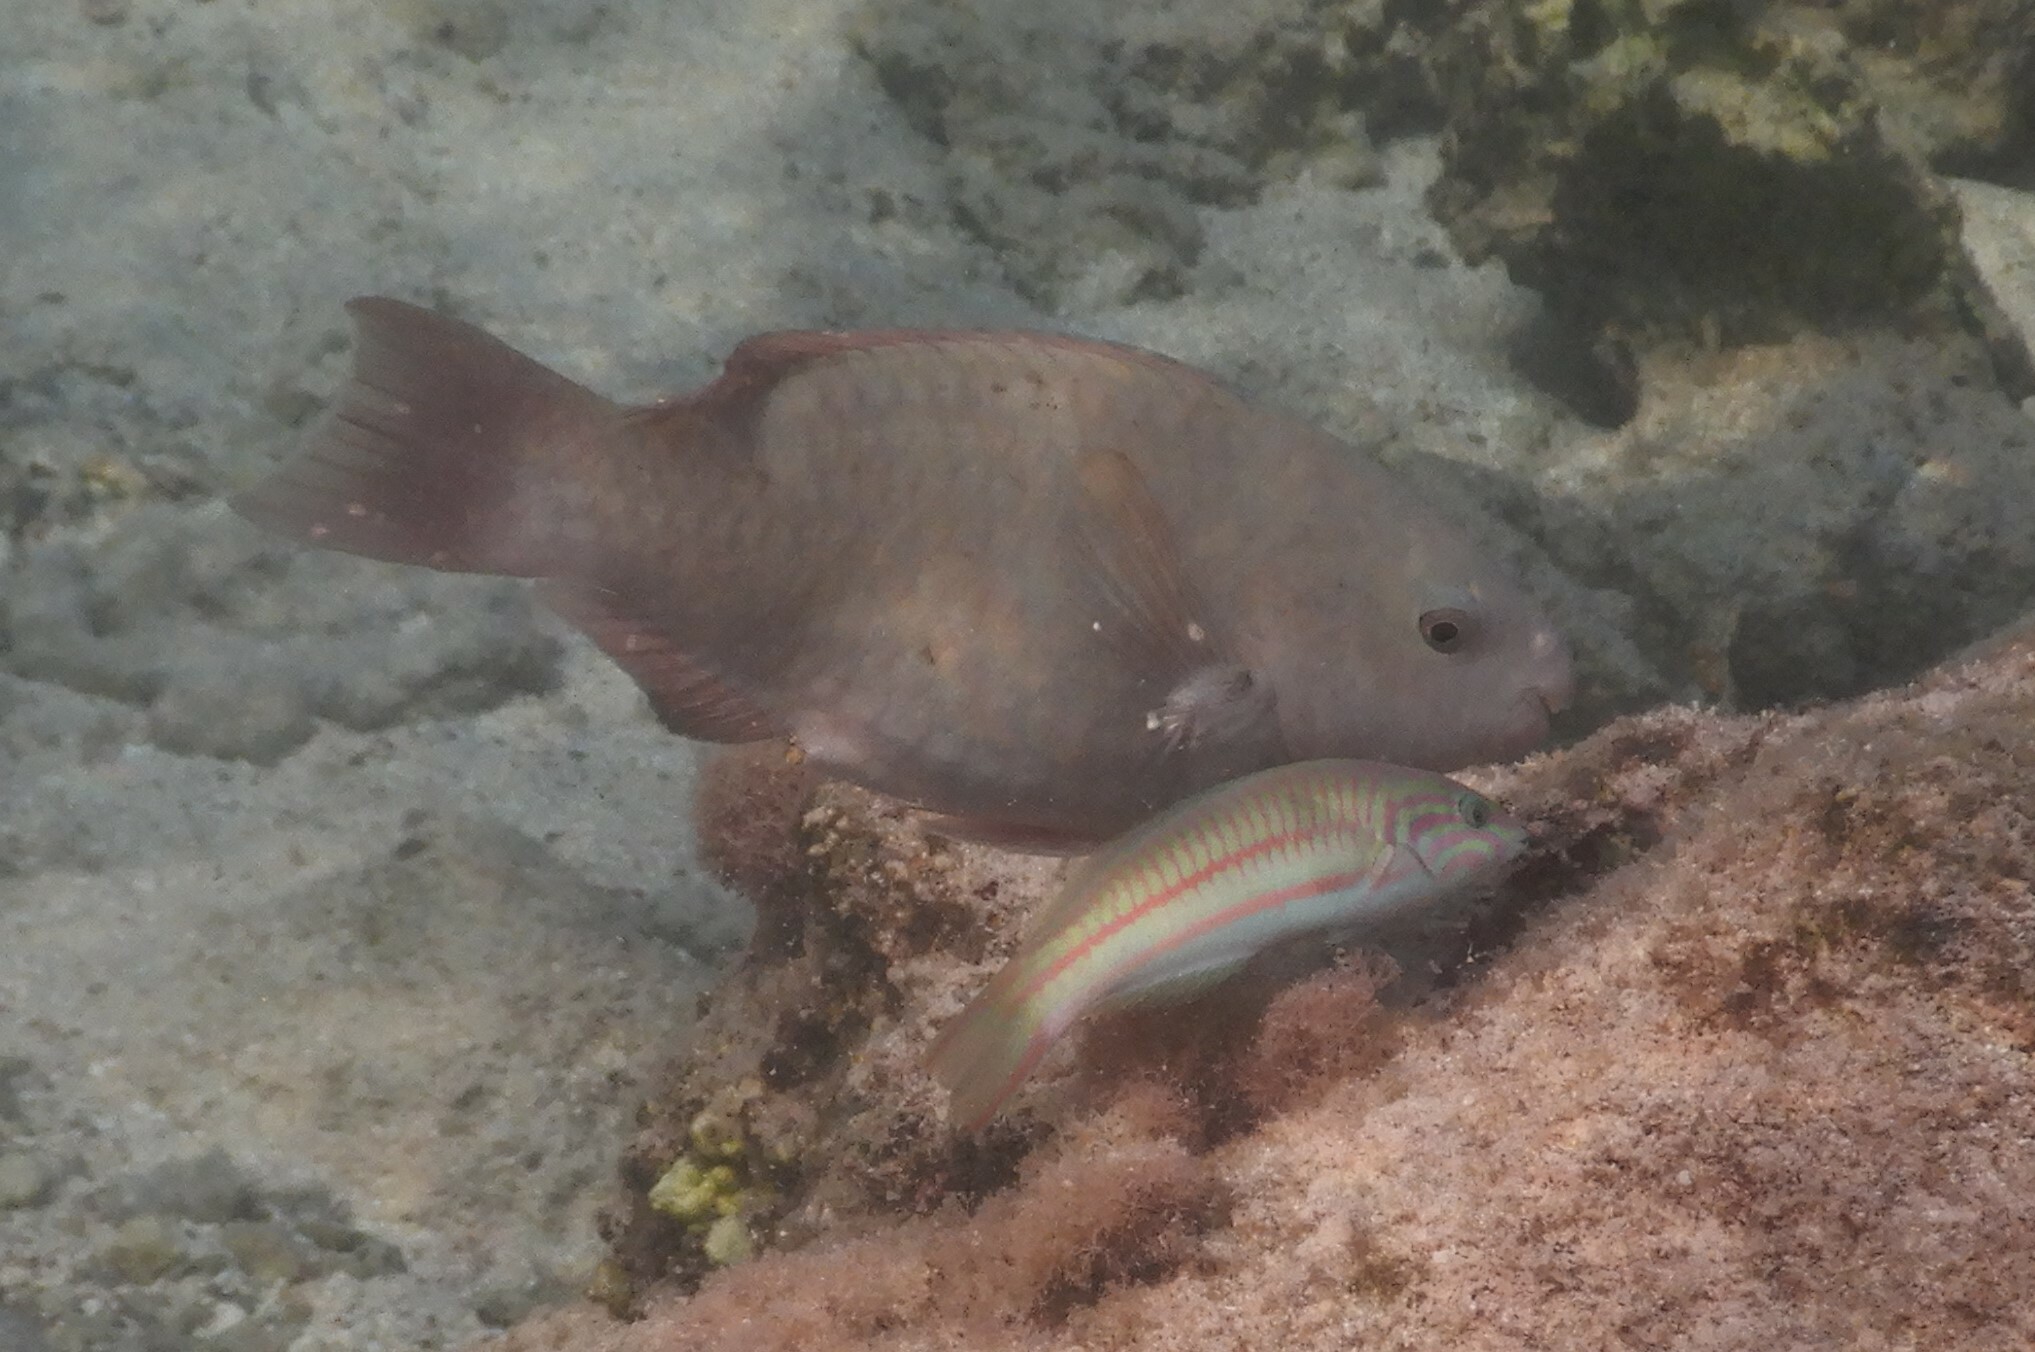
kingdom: Animalia
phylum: Chordata
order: Perciformes
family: Labridae
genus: Thalassoma
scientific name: Thalassoma rueppellii
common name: Klunzinger's wrasse
